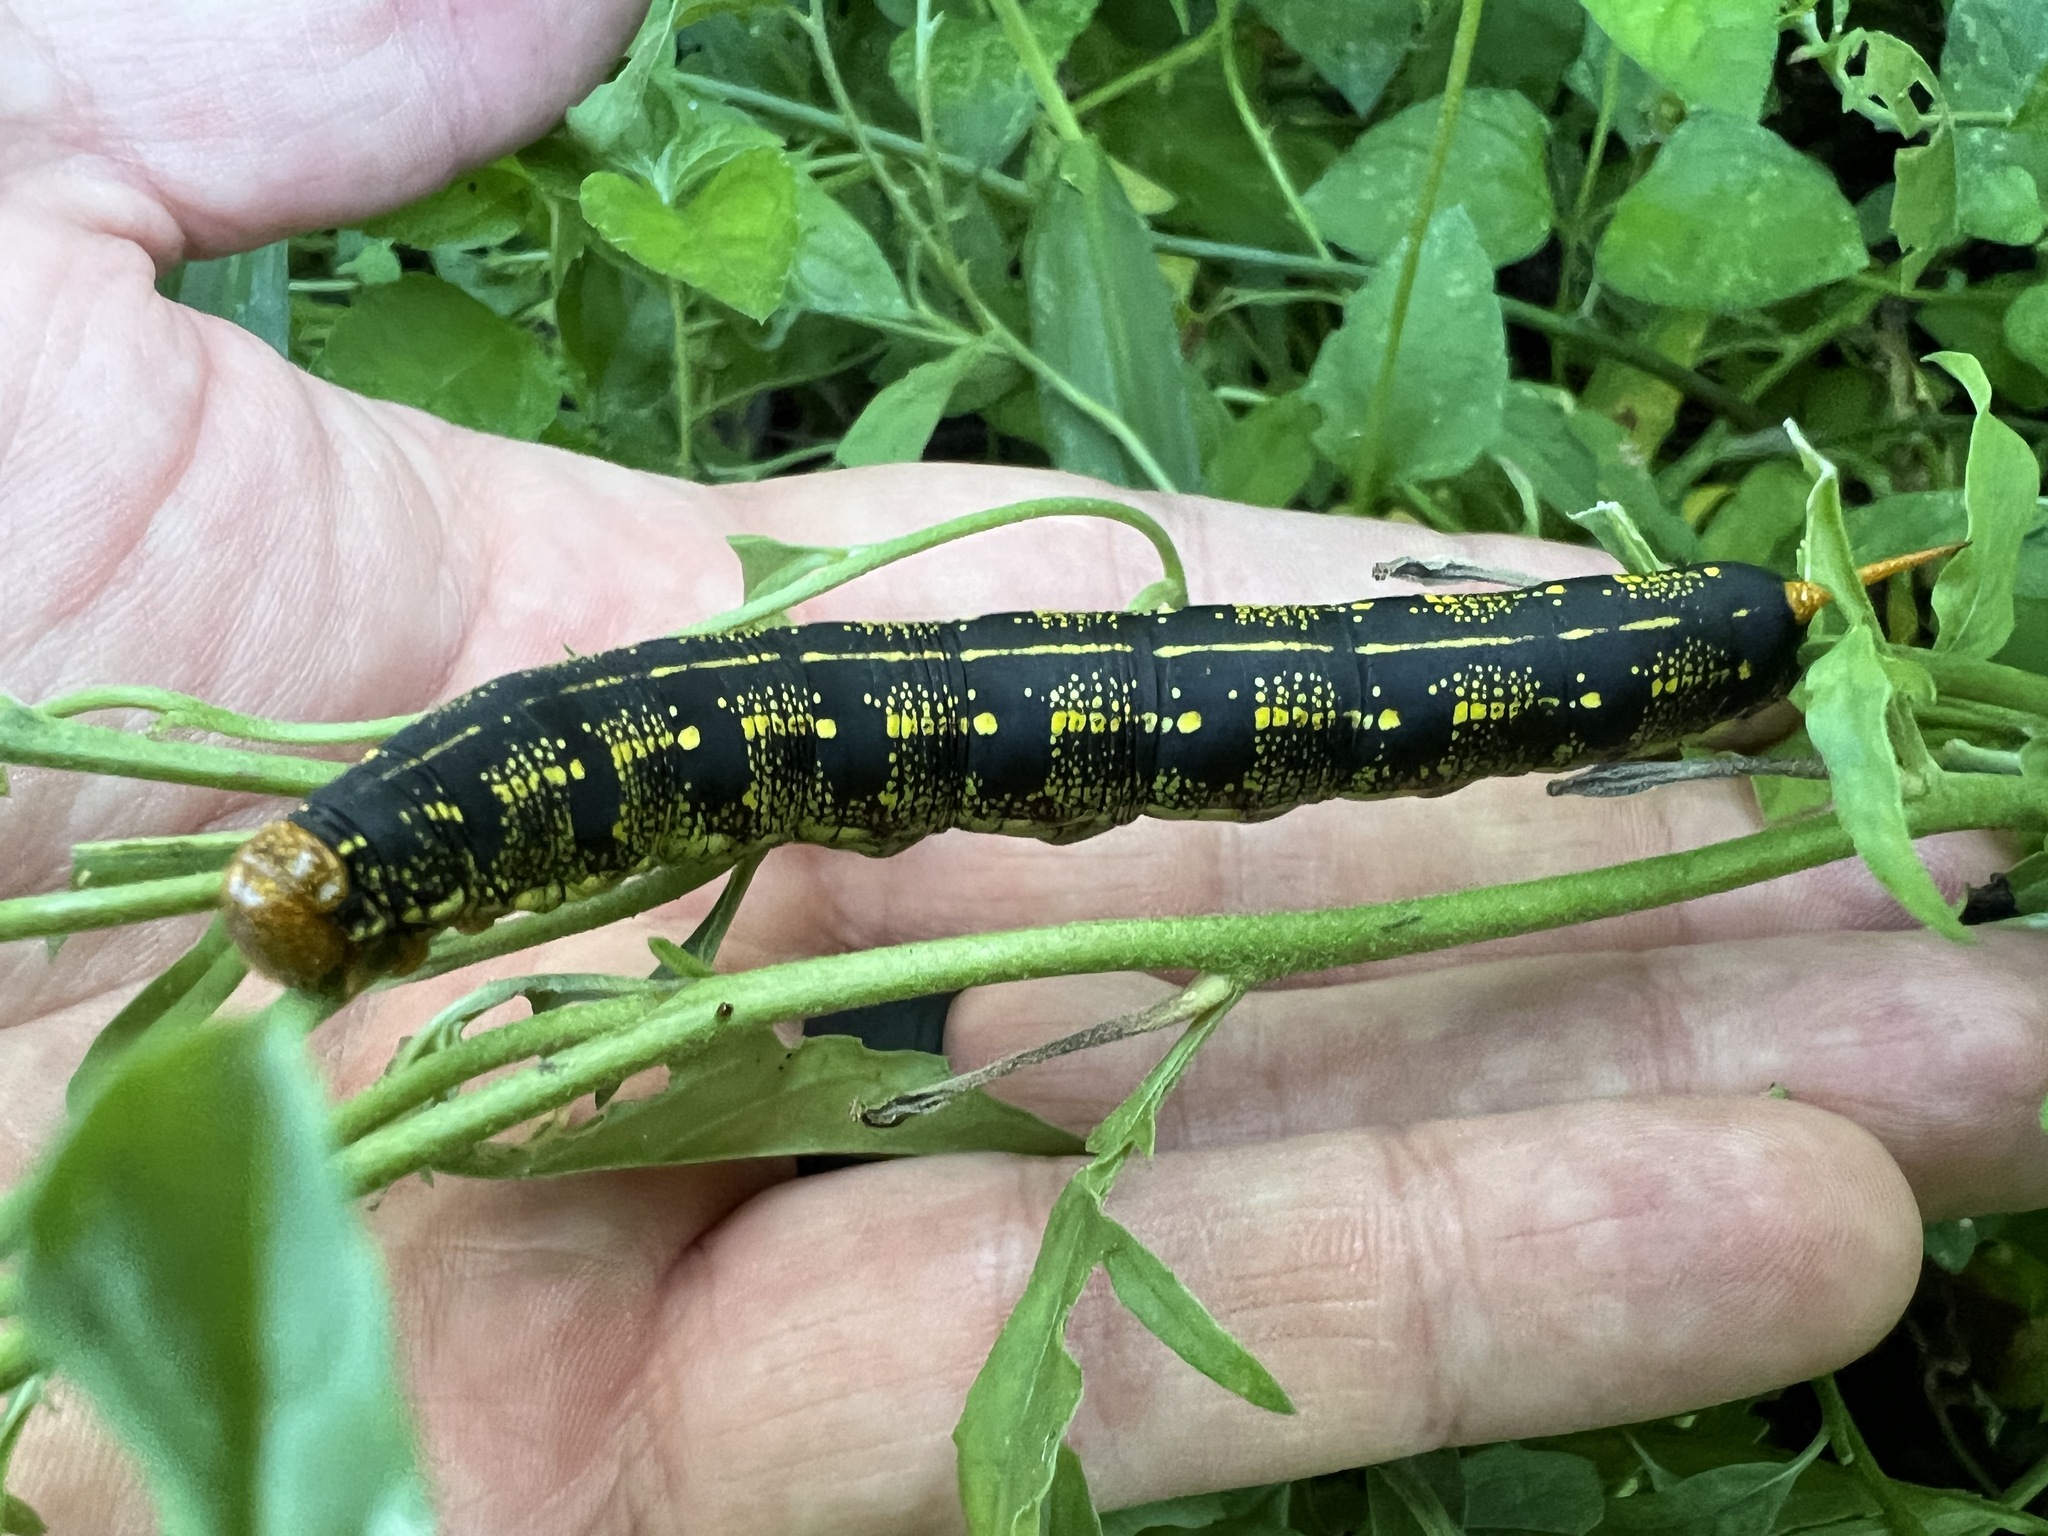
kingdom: Animalia
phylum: Arthropoda
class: Insecta
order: Lepidoptera
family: Sphingidae
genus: Hyles
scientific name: Hyles lineata
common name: White-lined sphinx
